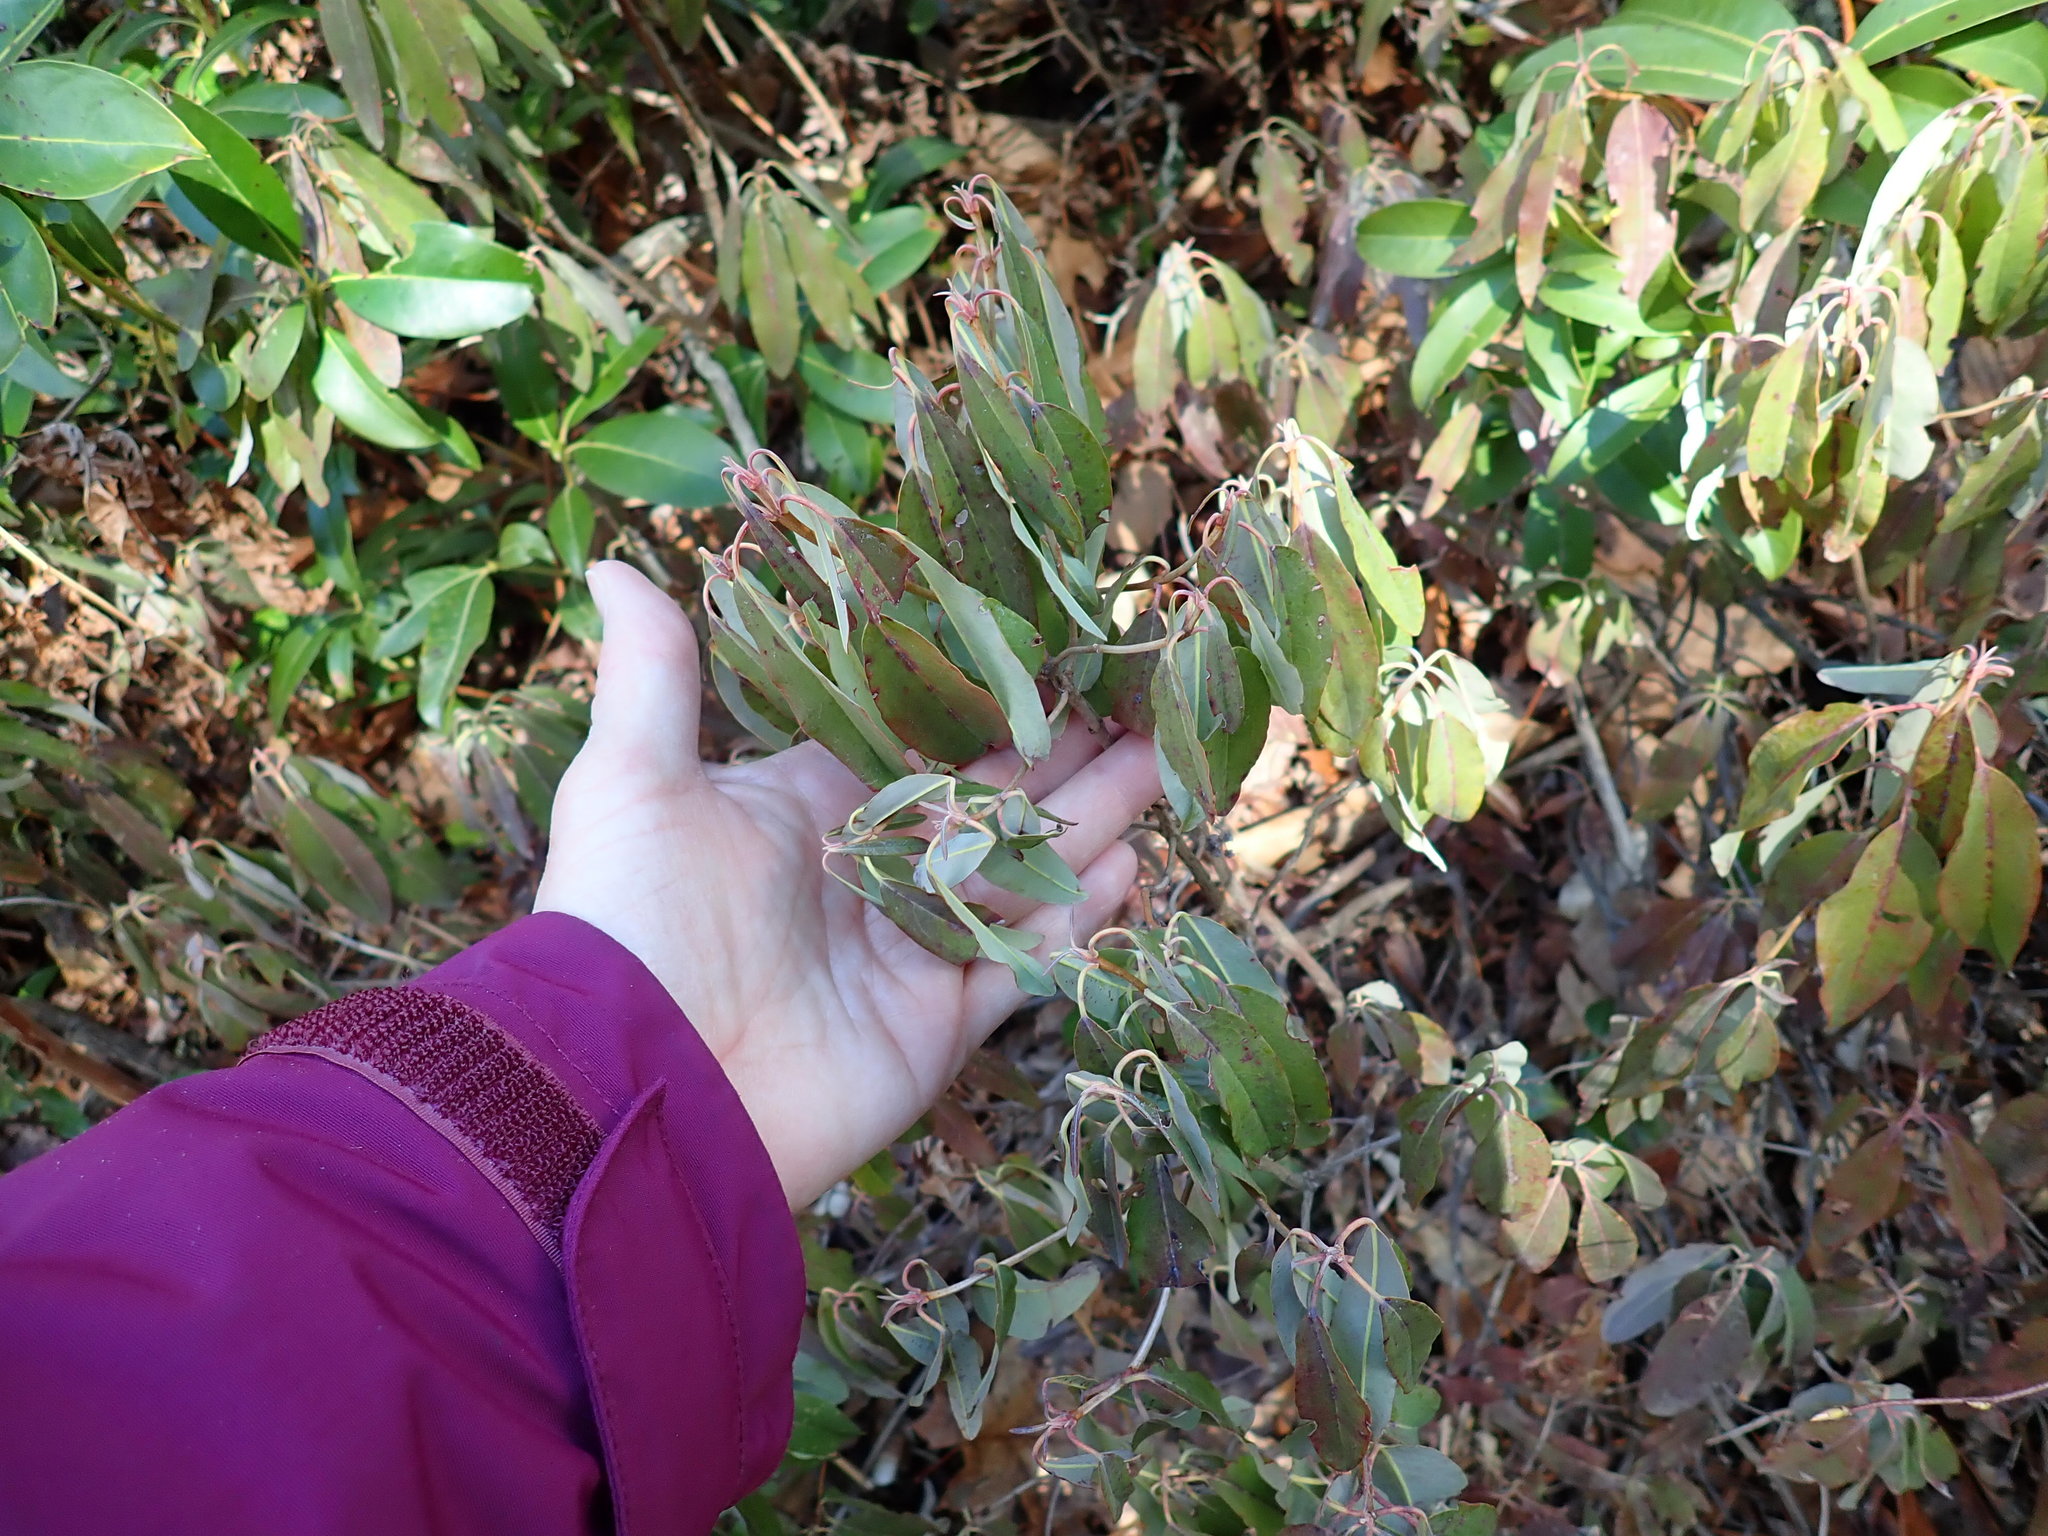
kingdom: Plantae
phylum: Tracheophyta
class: Magnoliopsida
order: Ericales
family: Ericaceae
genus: Kalmia
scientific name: Kalmia angustifolia
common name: Sheep-laurel
